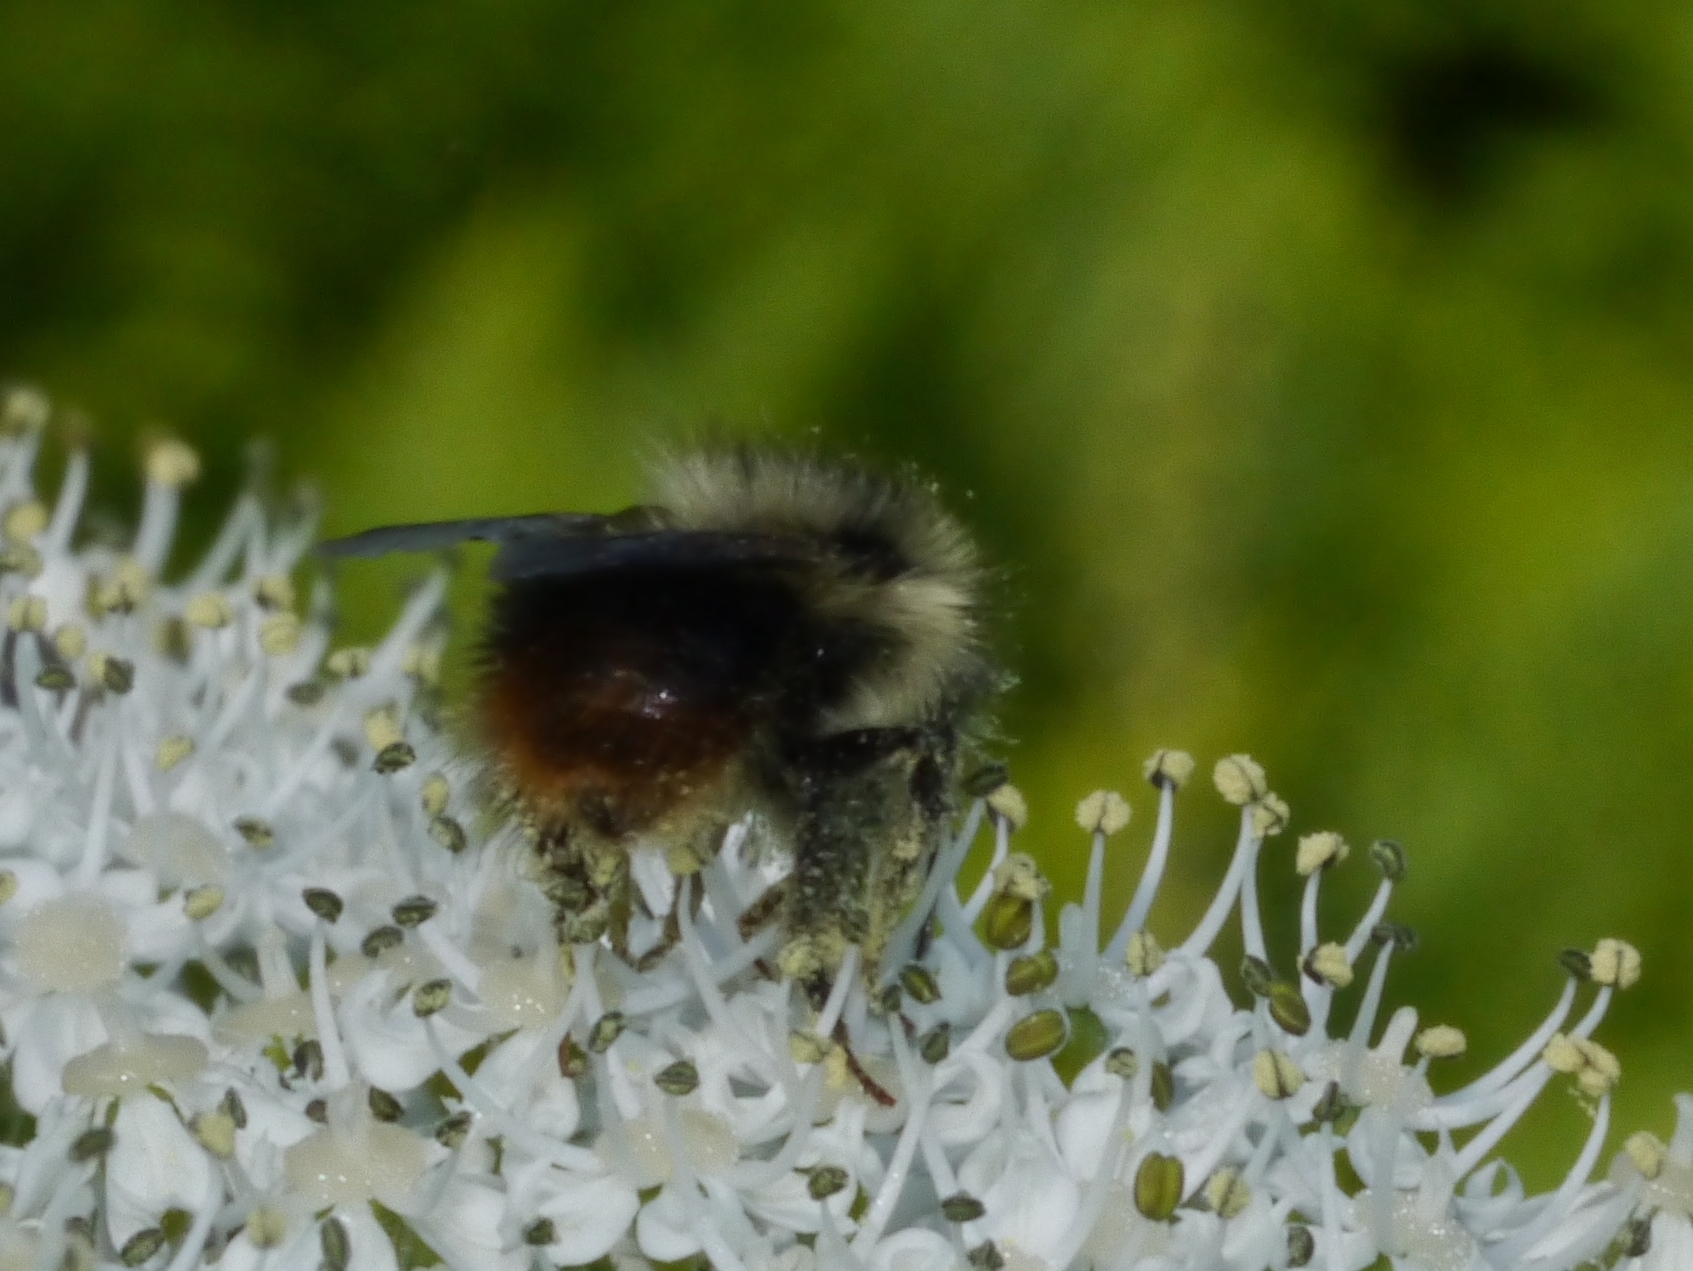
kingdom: Animalia
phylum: Arthropoda
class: Insecta
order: Hymenoptera
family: Apidae
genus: Bombus
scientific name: Bombus mixtus
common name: Fuzzy-horned bumble bee
